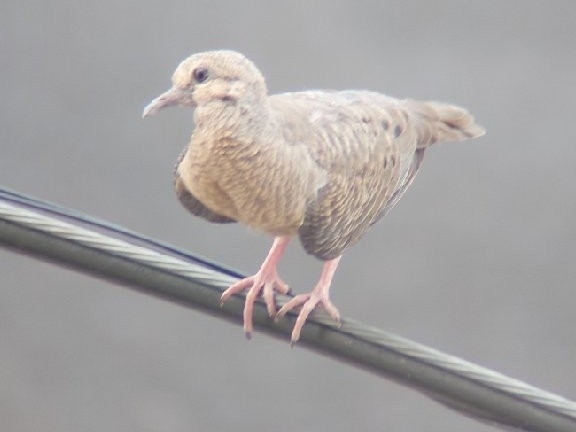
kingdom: Animalia
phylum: Chordata
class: Aves
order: Columbiformes
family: Columbidae
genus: Zenaida
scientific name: Zenaida auriculata
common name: Eared dove
